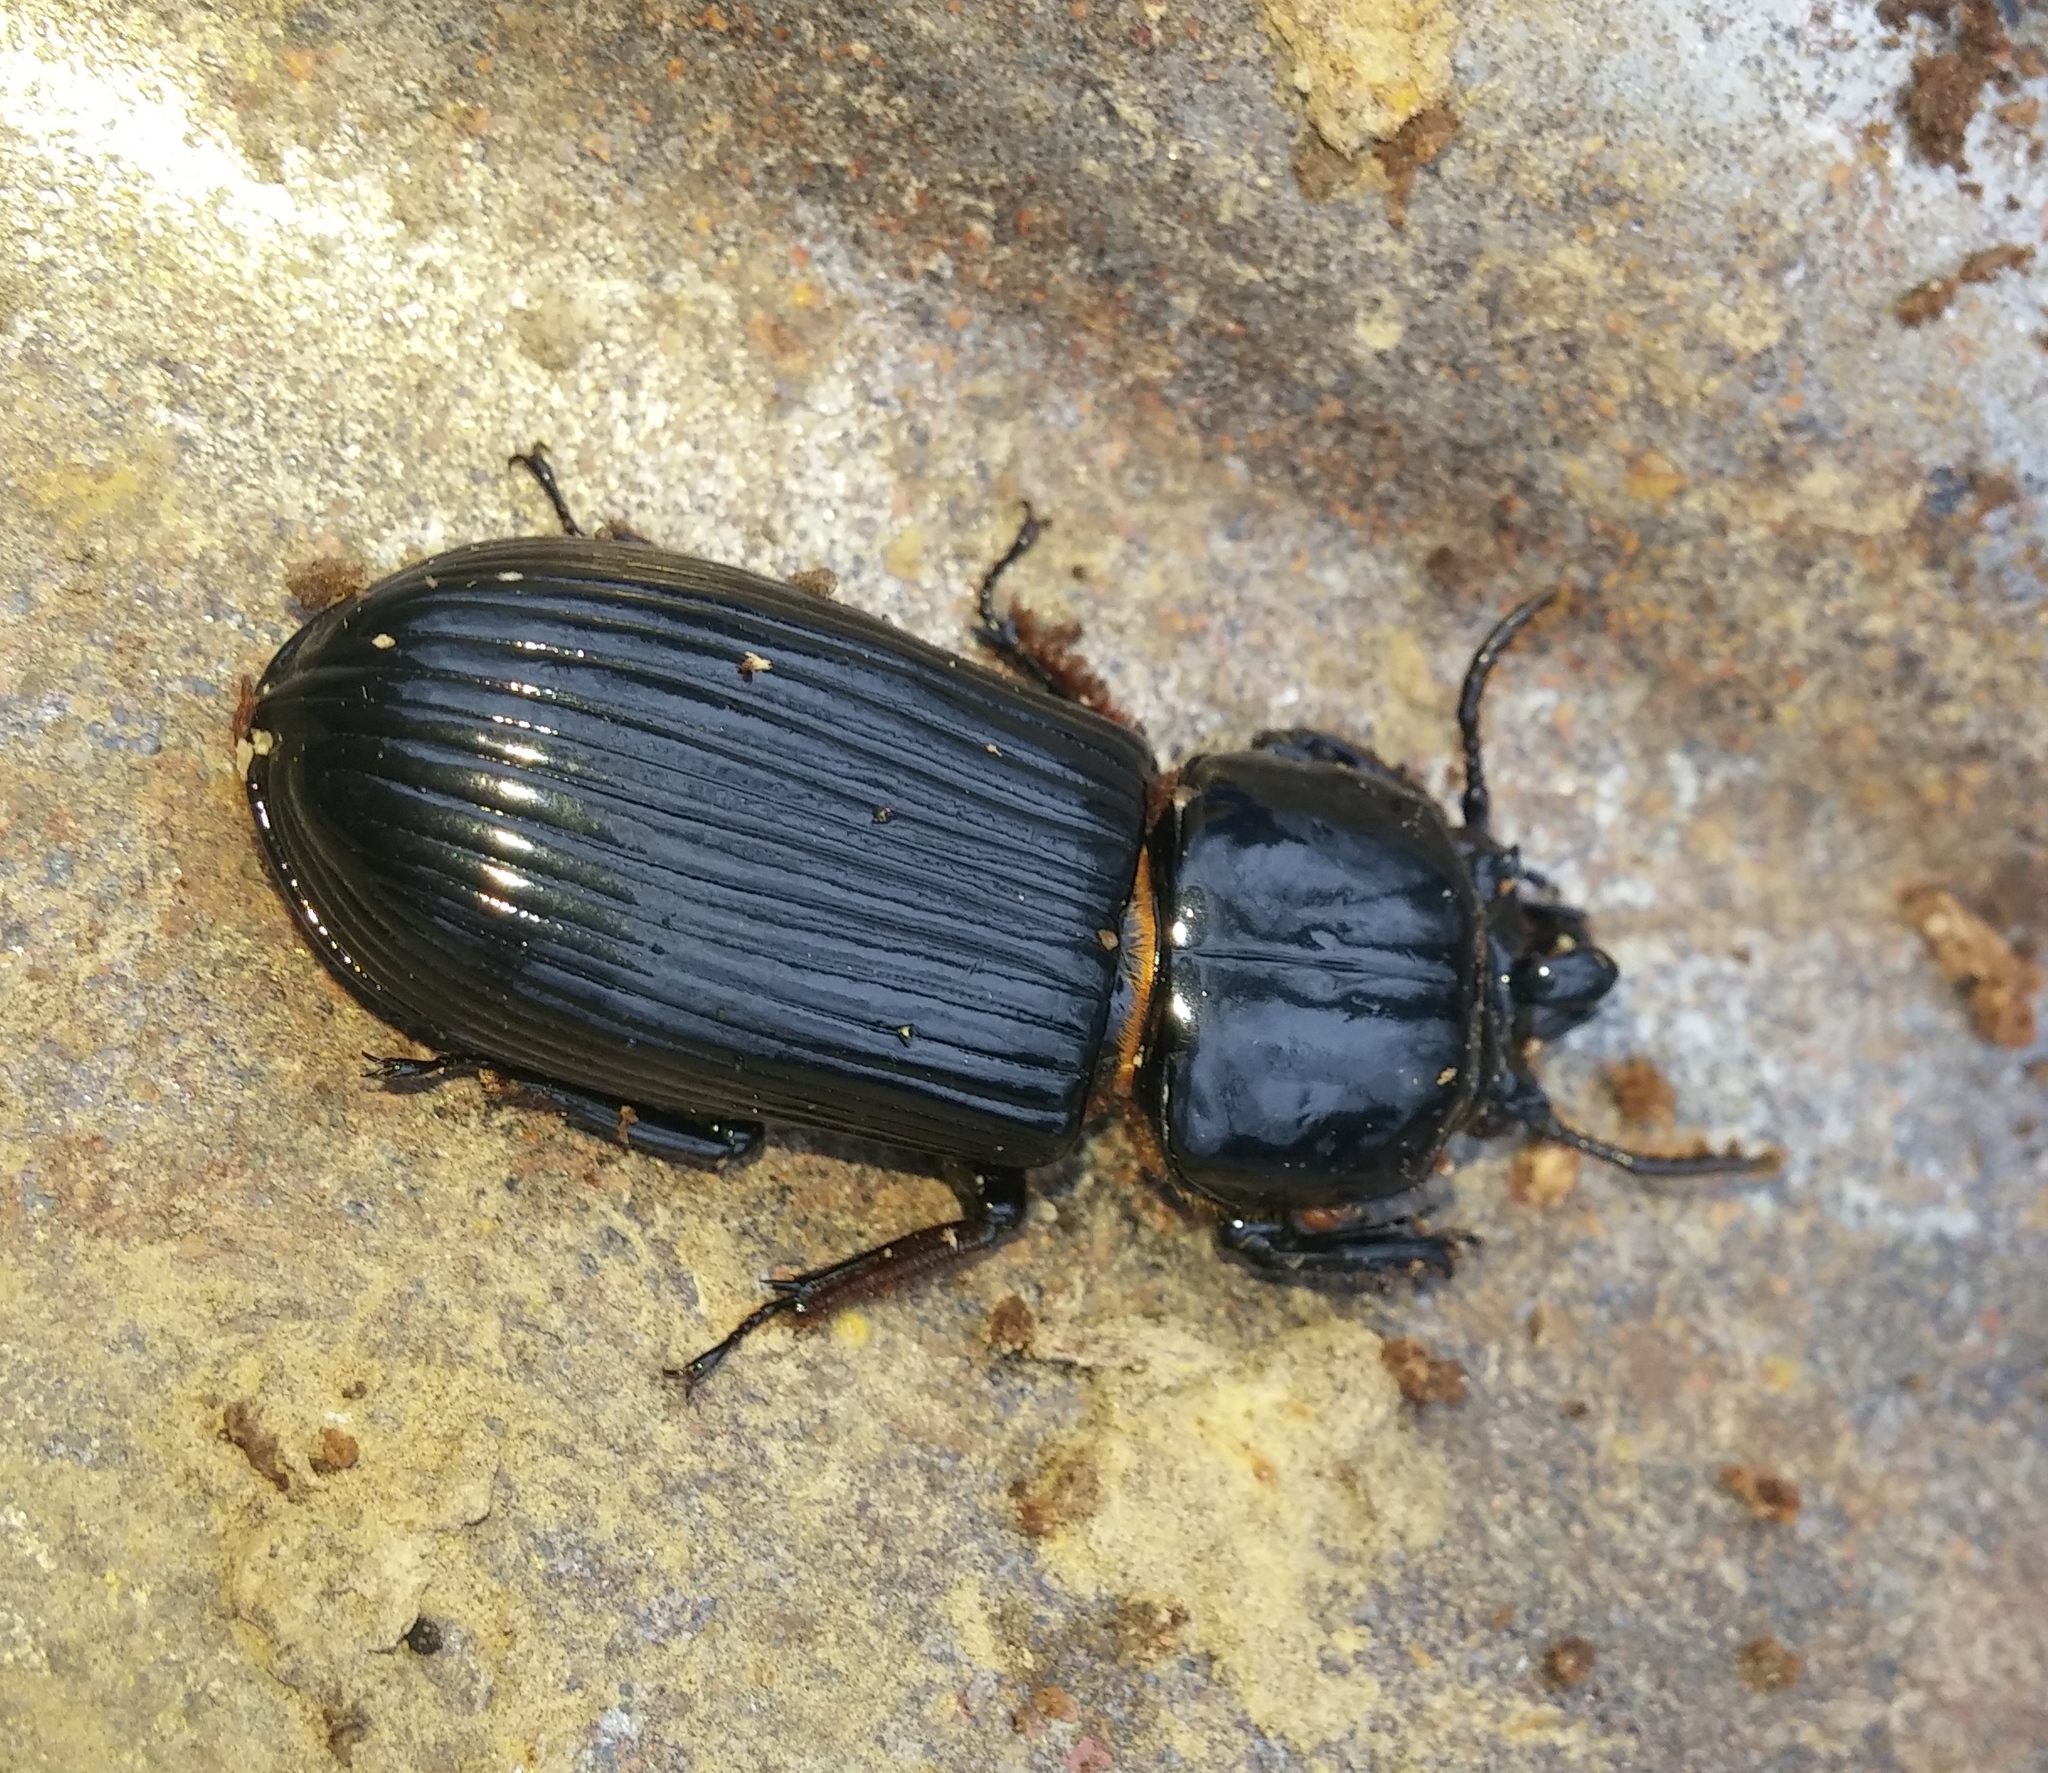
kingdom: Animalia
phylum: Arthropoda
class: Insecta
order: Coleoptera
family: Passalidae
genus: Odontotaenius
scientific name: Odontotaenius disjunctus
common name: Patent leather beetle
